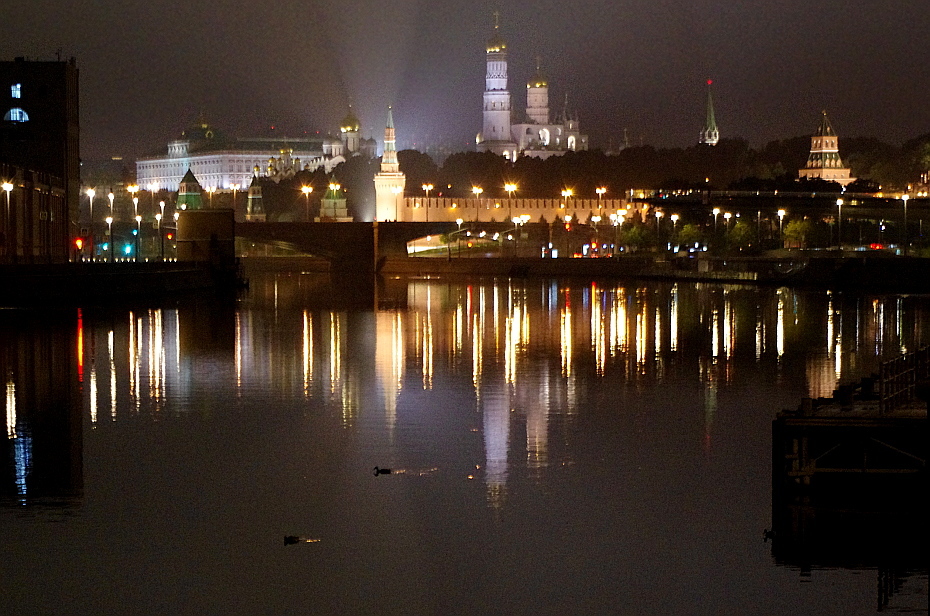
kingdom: Animalia
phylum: Chordata
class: Aves
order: Anseriformes
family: Anatidae
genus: Anas
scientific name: Anas platyrhynchos
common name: Mallard
